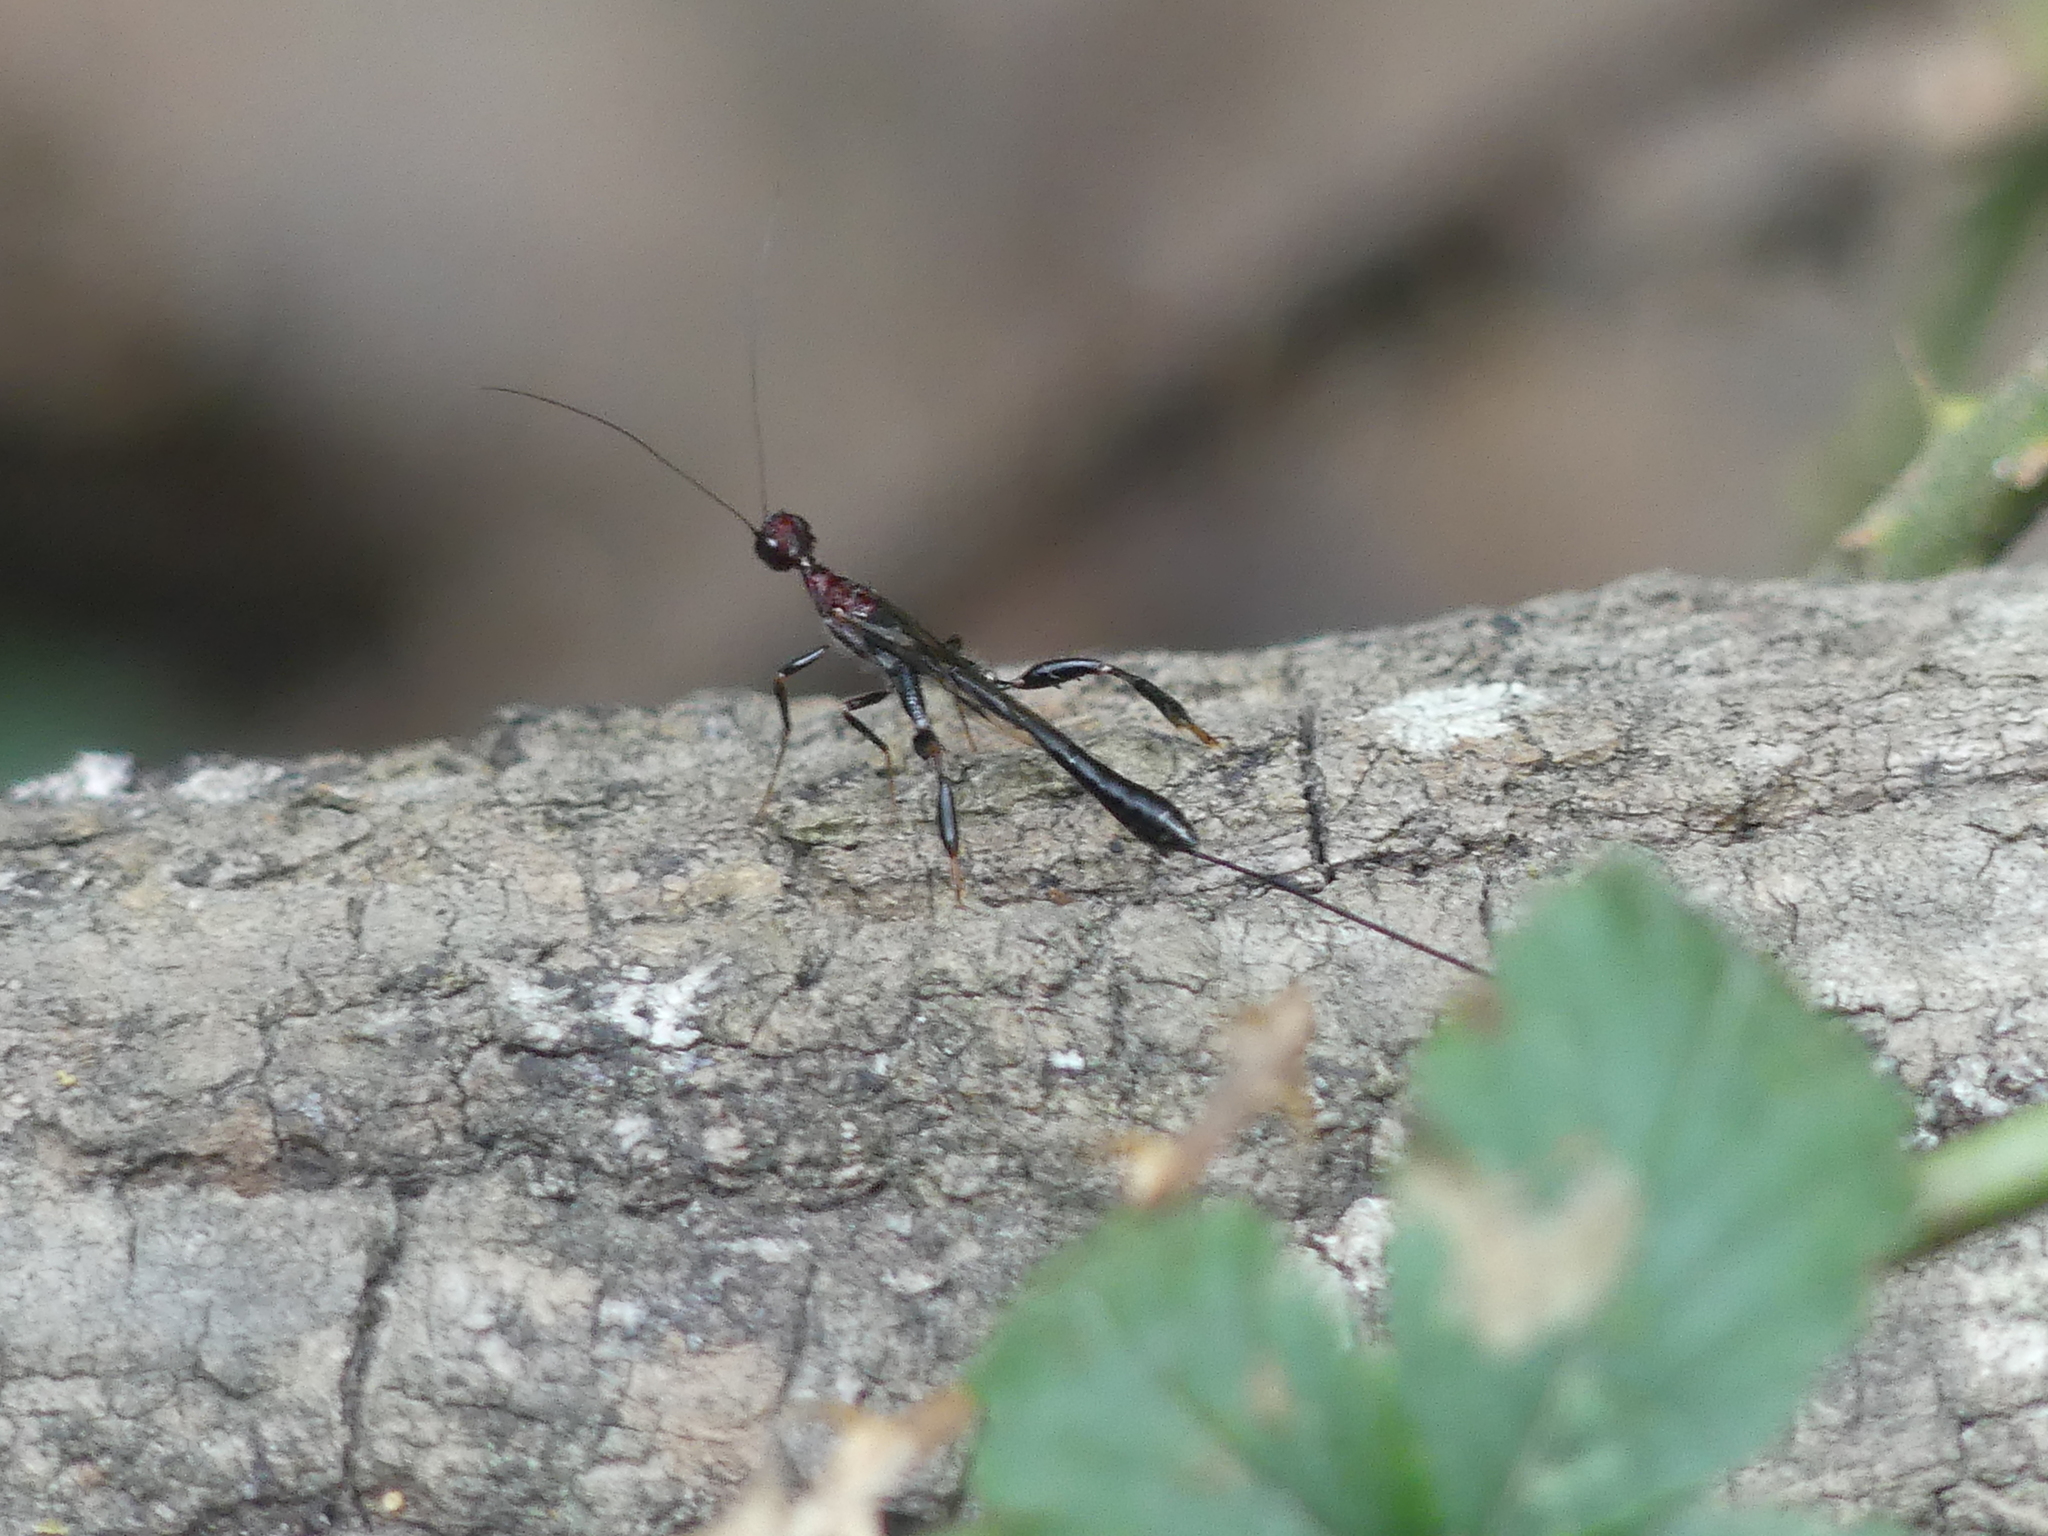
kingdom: Animalia
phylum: Arthropoda
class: Insecta
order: Hymenoptera
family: Stephanidae
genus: Megischus
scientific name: Megischus
